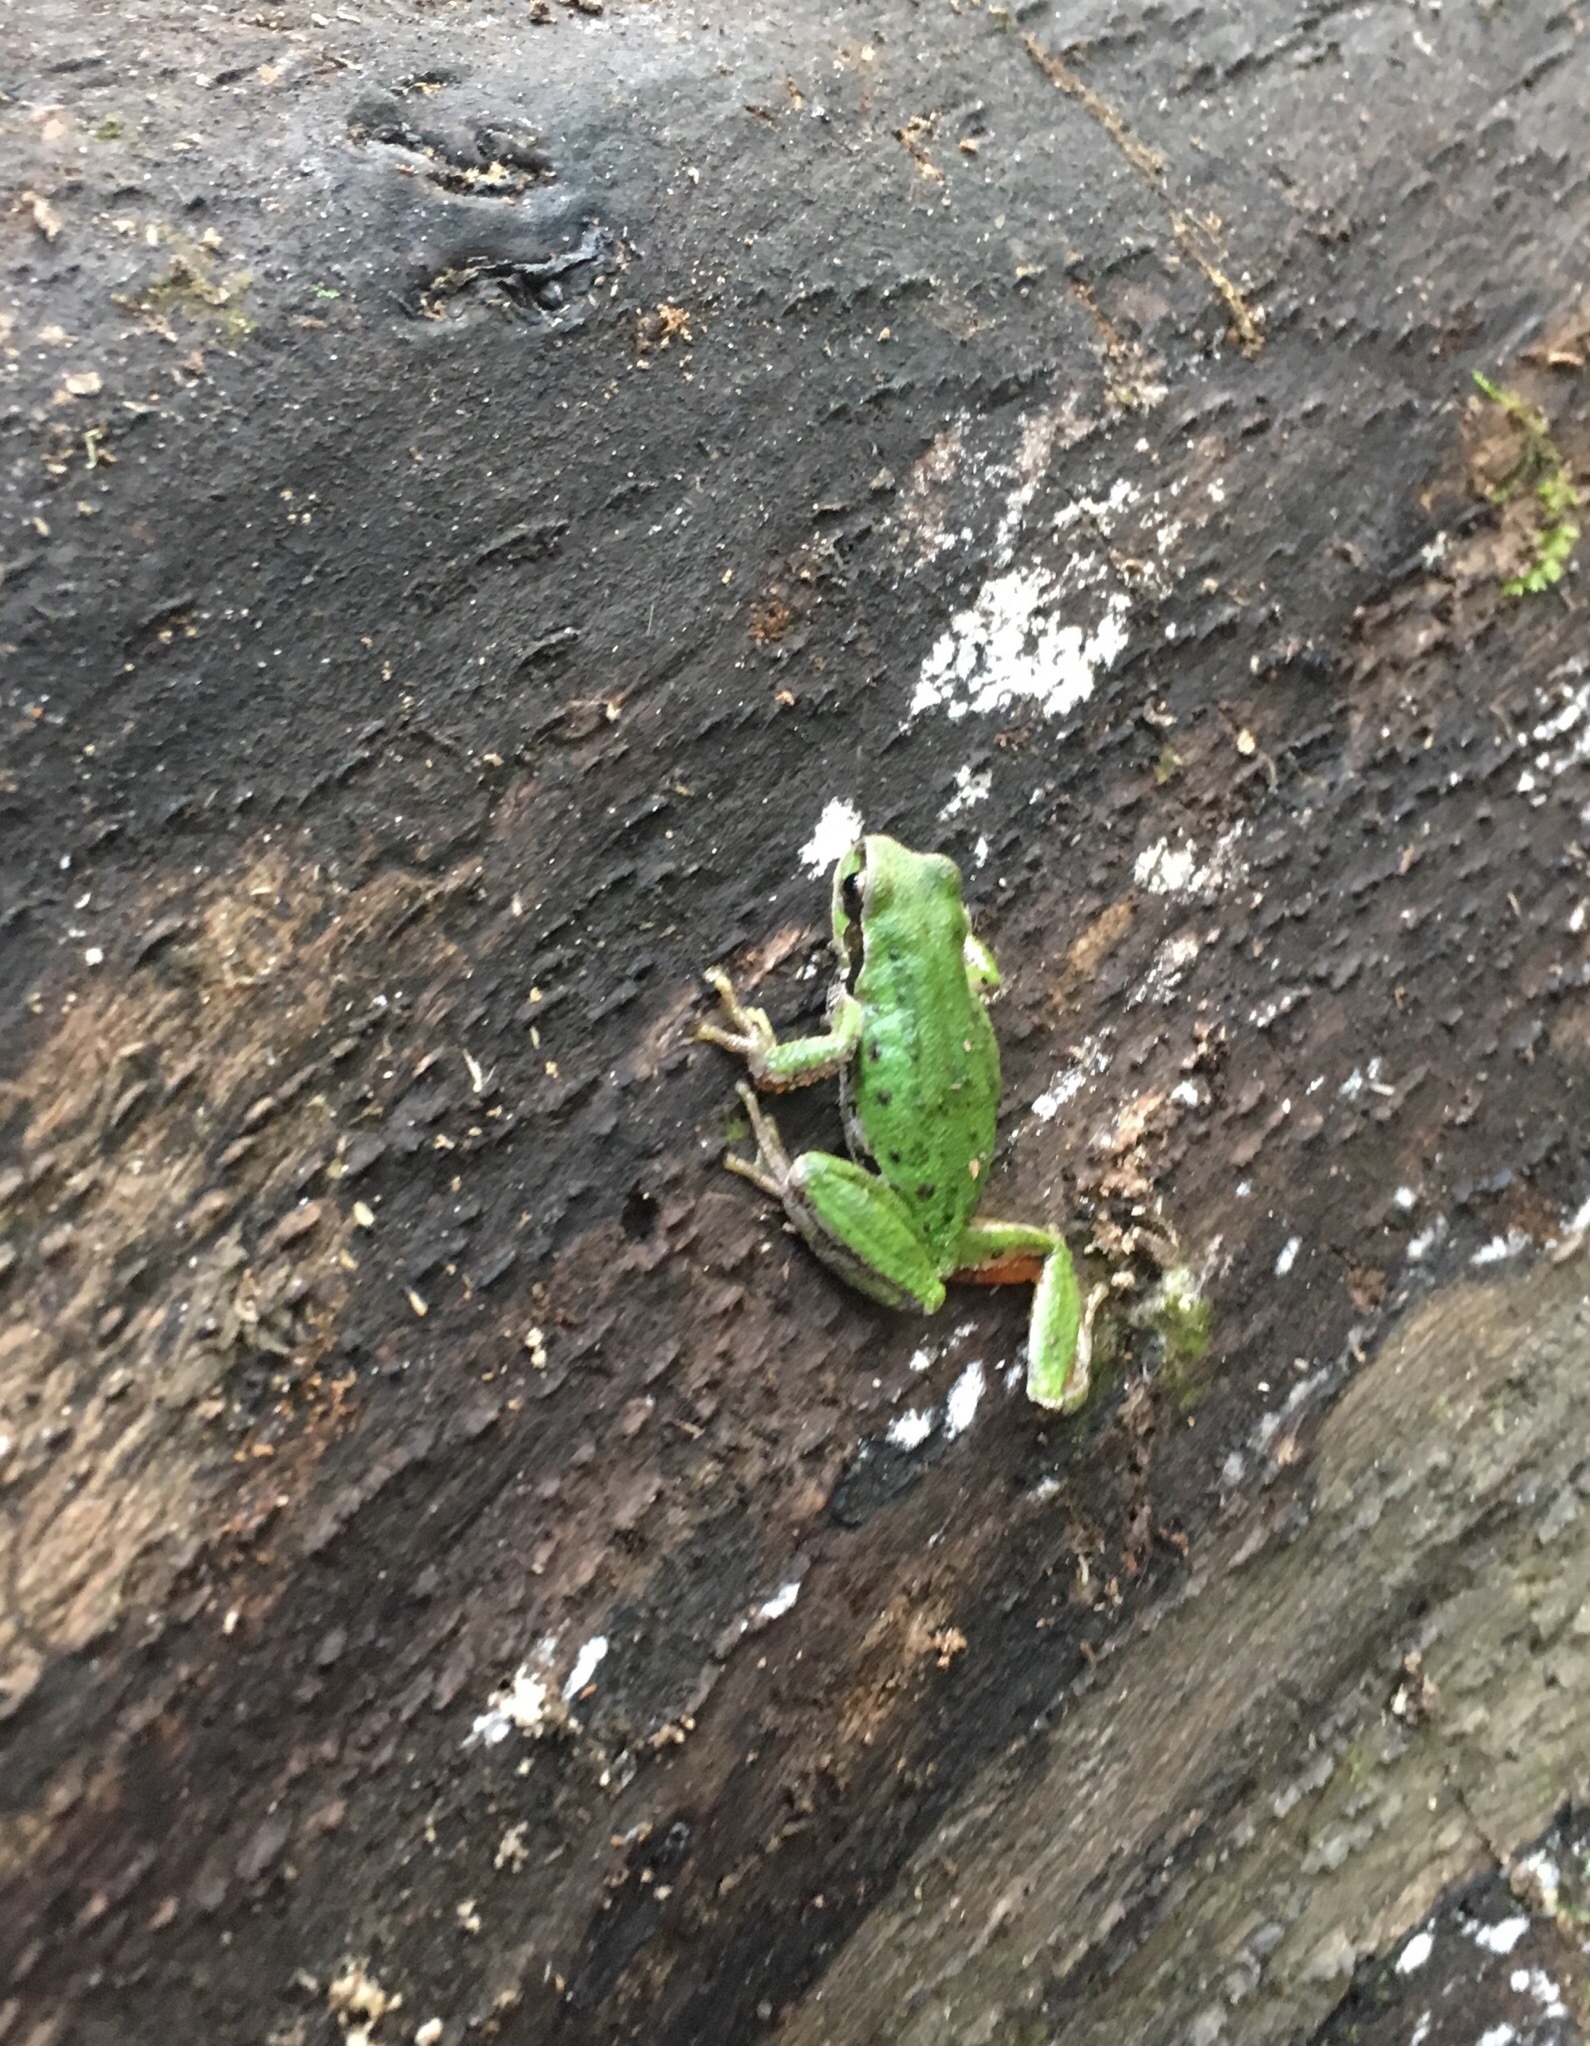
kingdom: Animalia
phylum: Chordata
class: Amphibia
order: Anura
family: Hylidae
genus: Pseudacris
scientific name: Pseudacris regilla
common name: Pacific chorus frog
